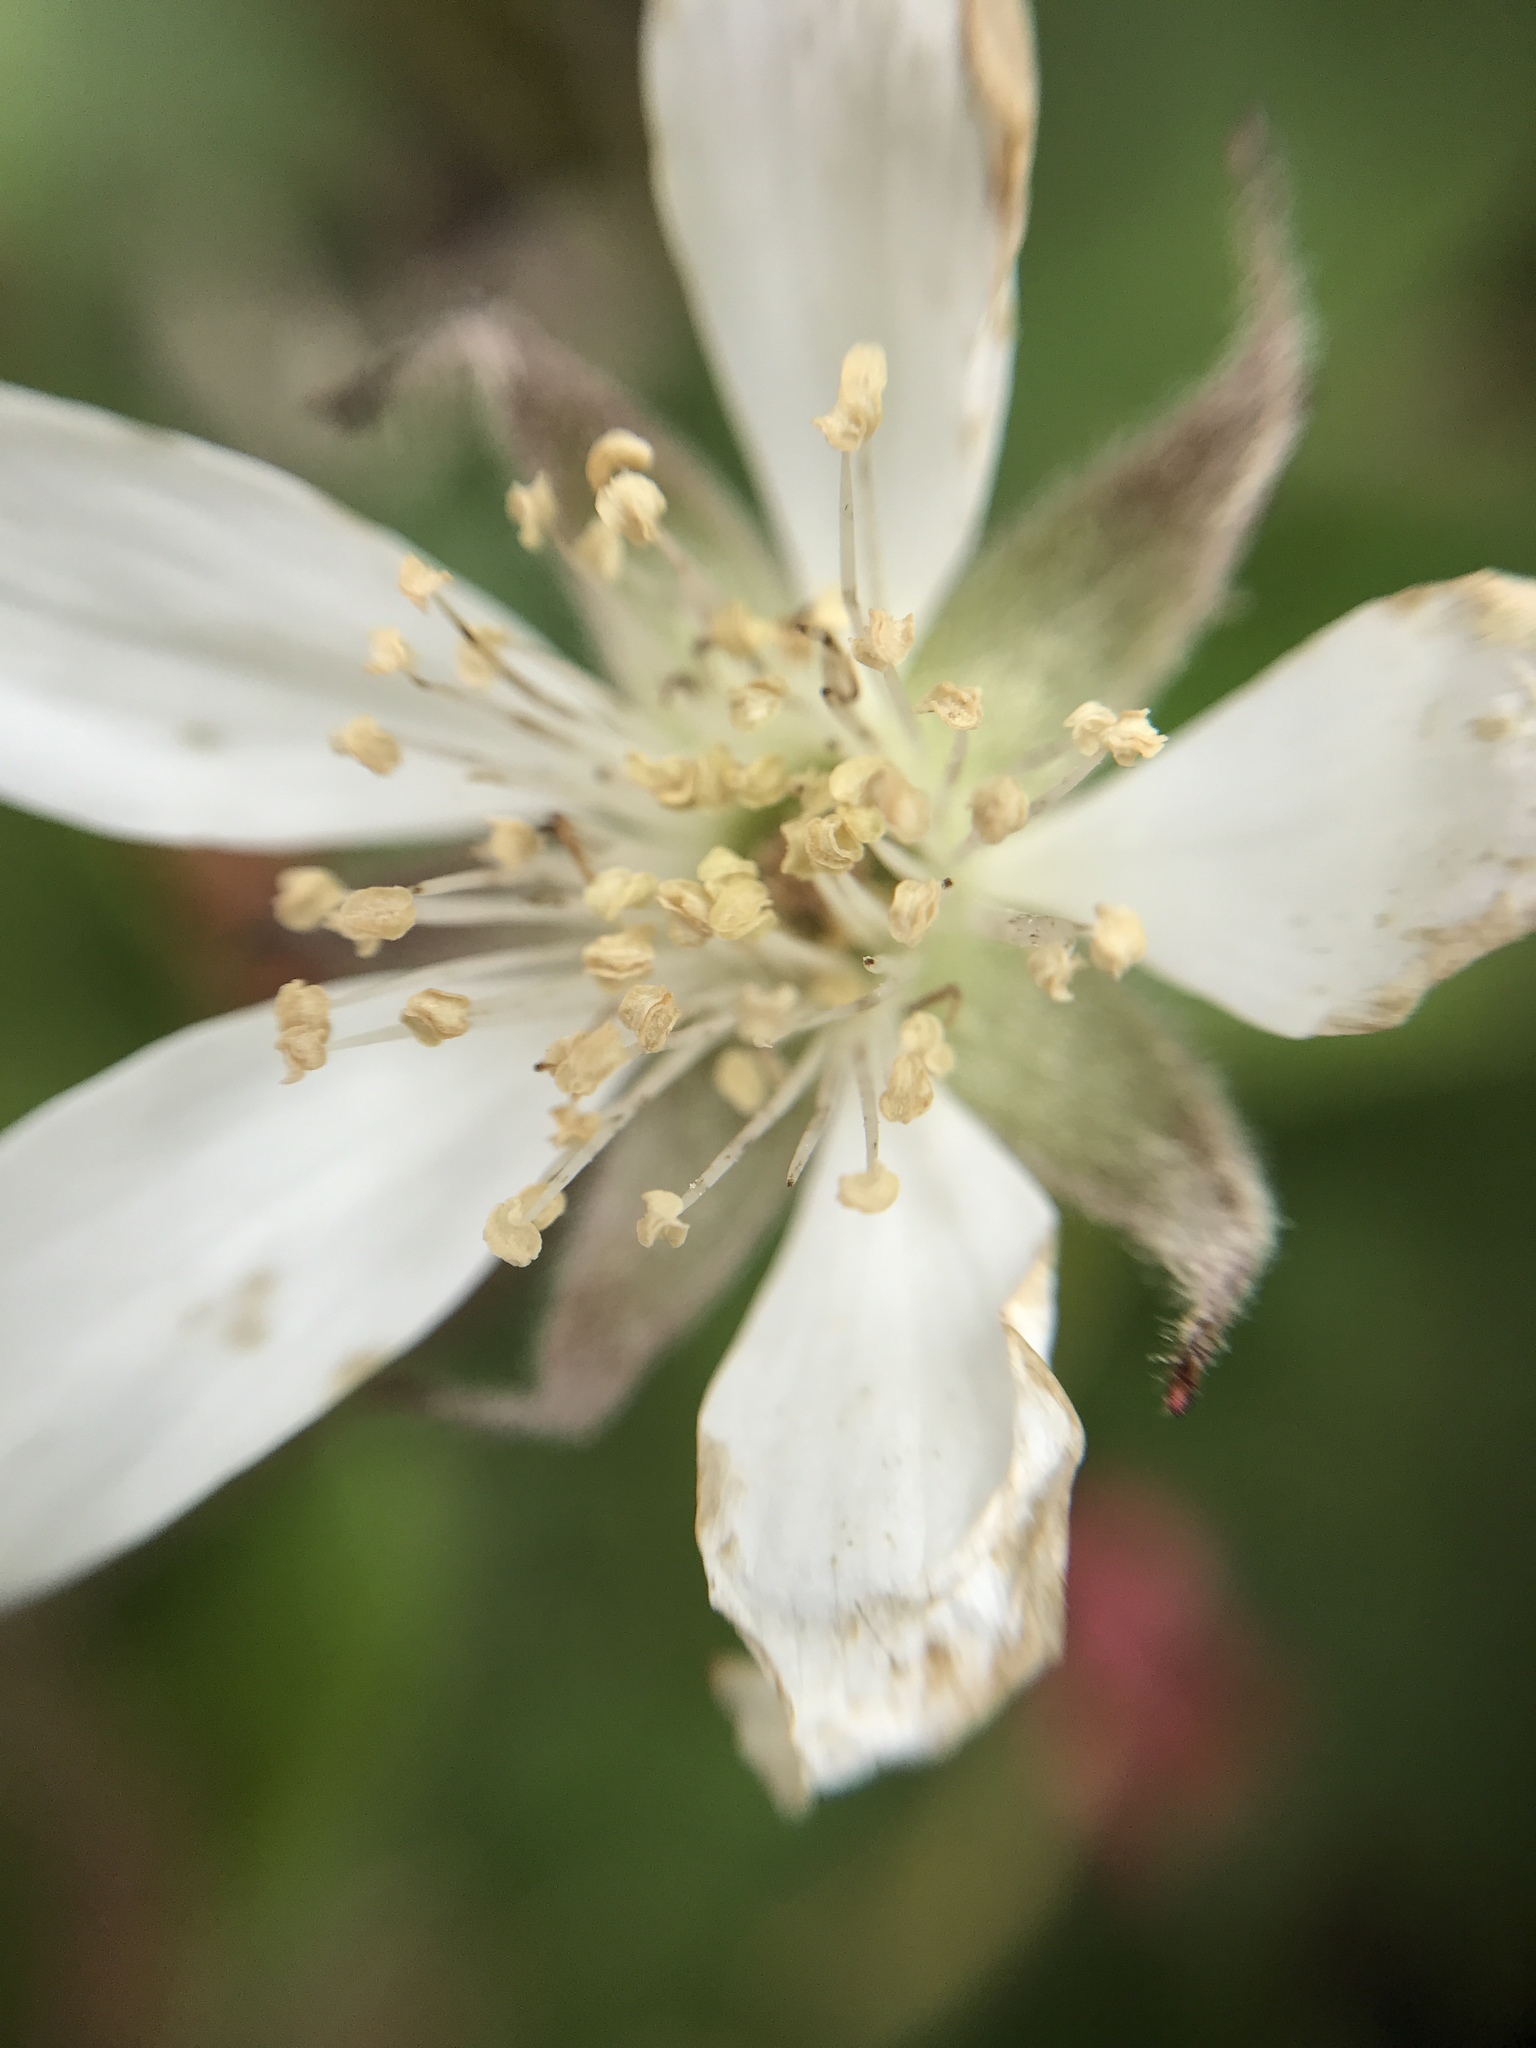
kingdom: Plantae
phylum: Tracheophyta
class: Magnoliopsida
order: Rosales
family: Rosaceae
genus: Rubus
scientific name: Rubus ursinus
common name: Pacific blackberry
